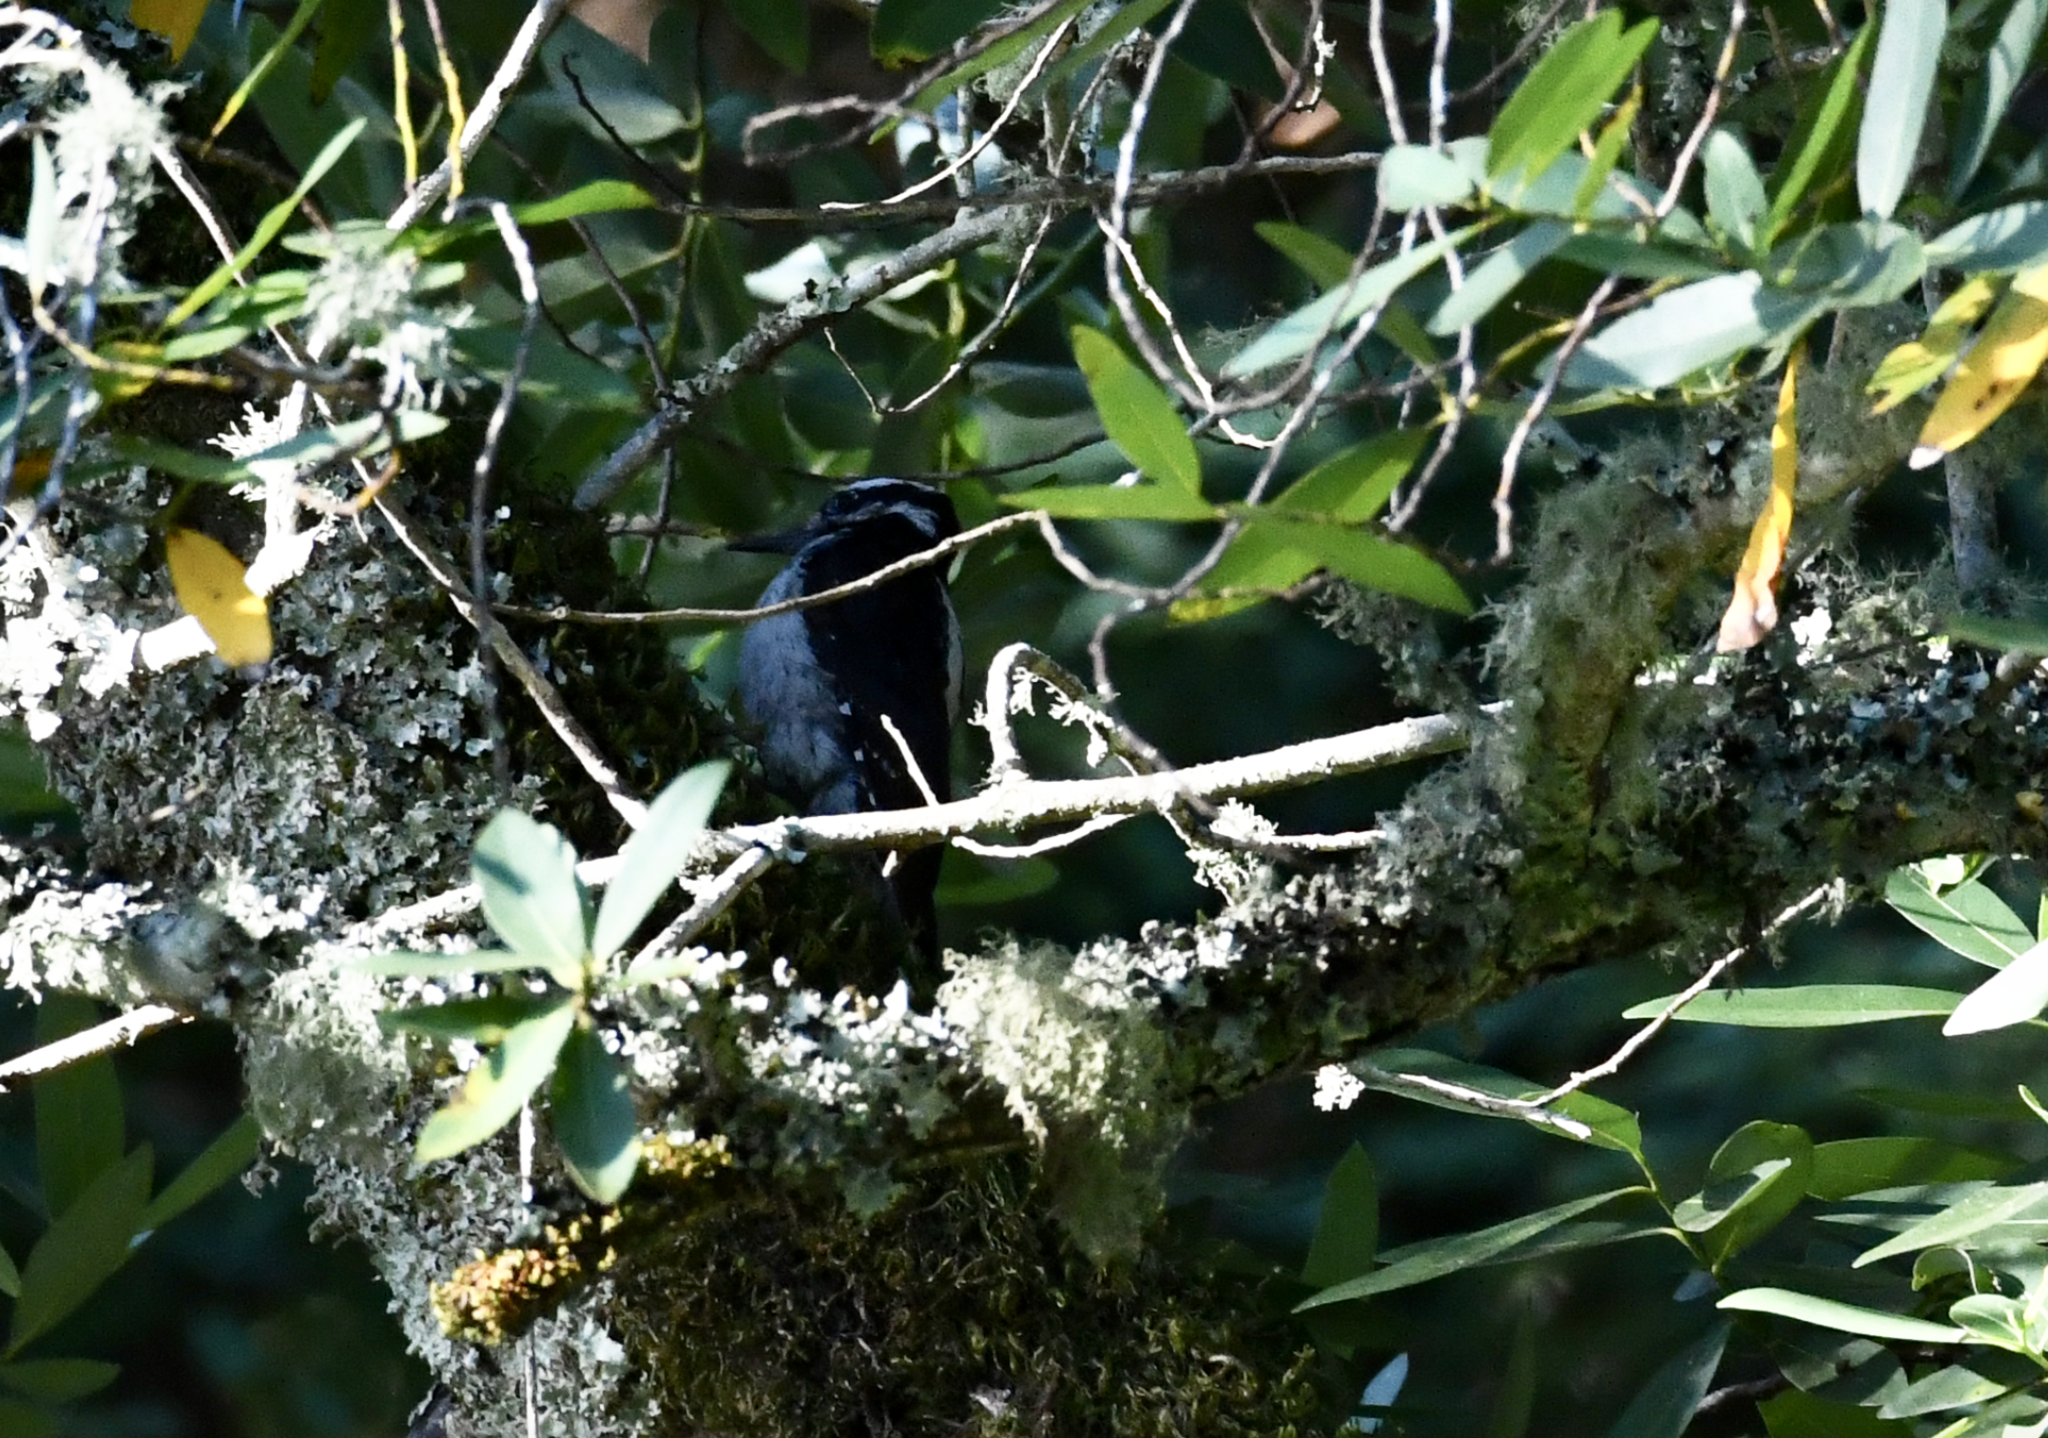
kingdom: Animalia
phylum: Chordata
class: Aves
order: Piciformes
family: Picidae
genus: Leuconotopicus
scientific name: Leuconotopicus villosus
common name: Hairy woodpecker
